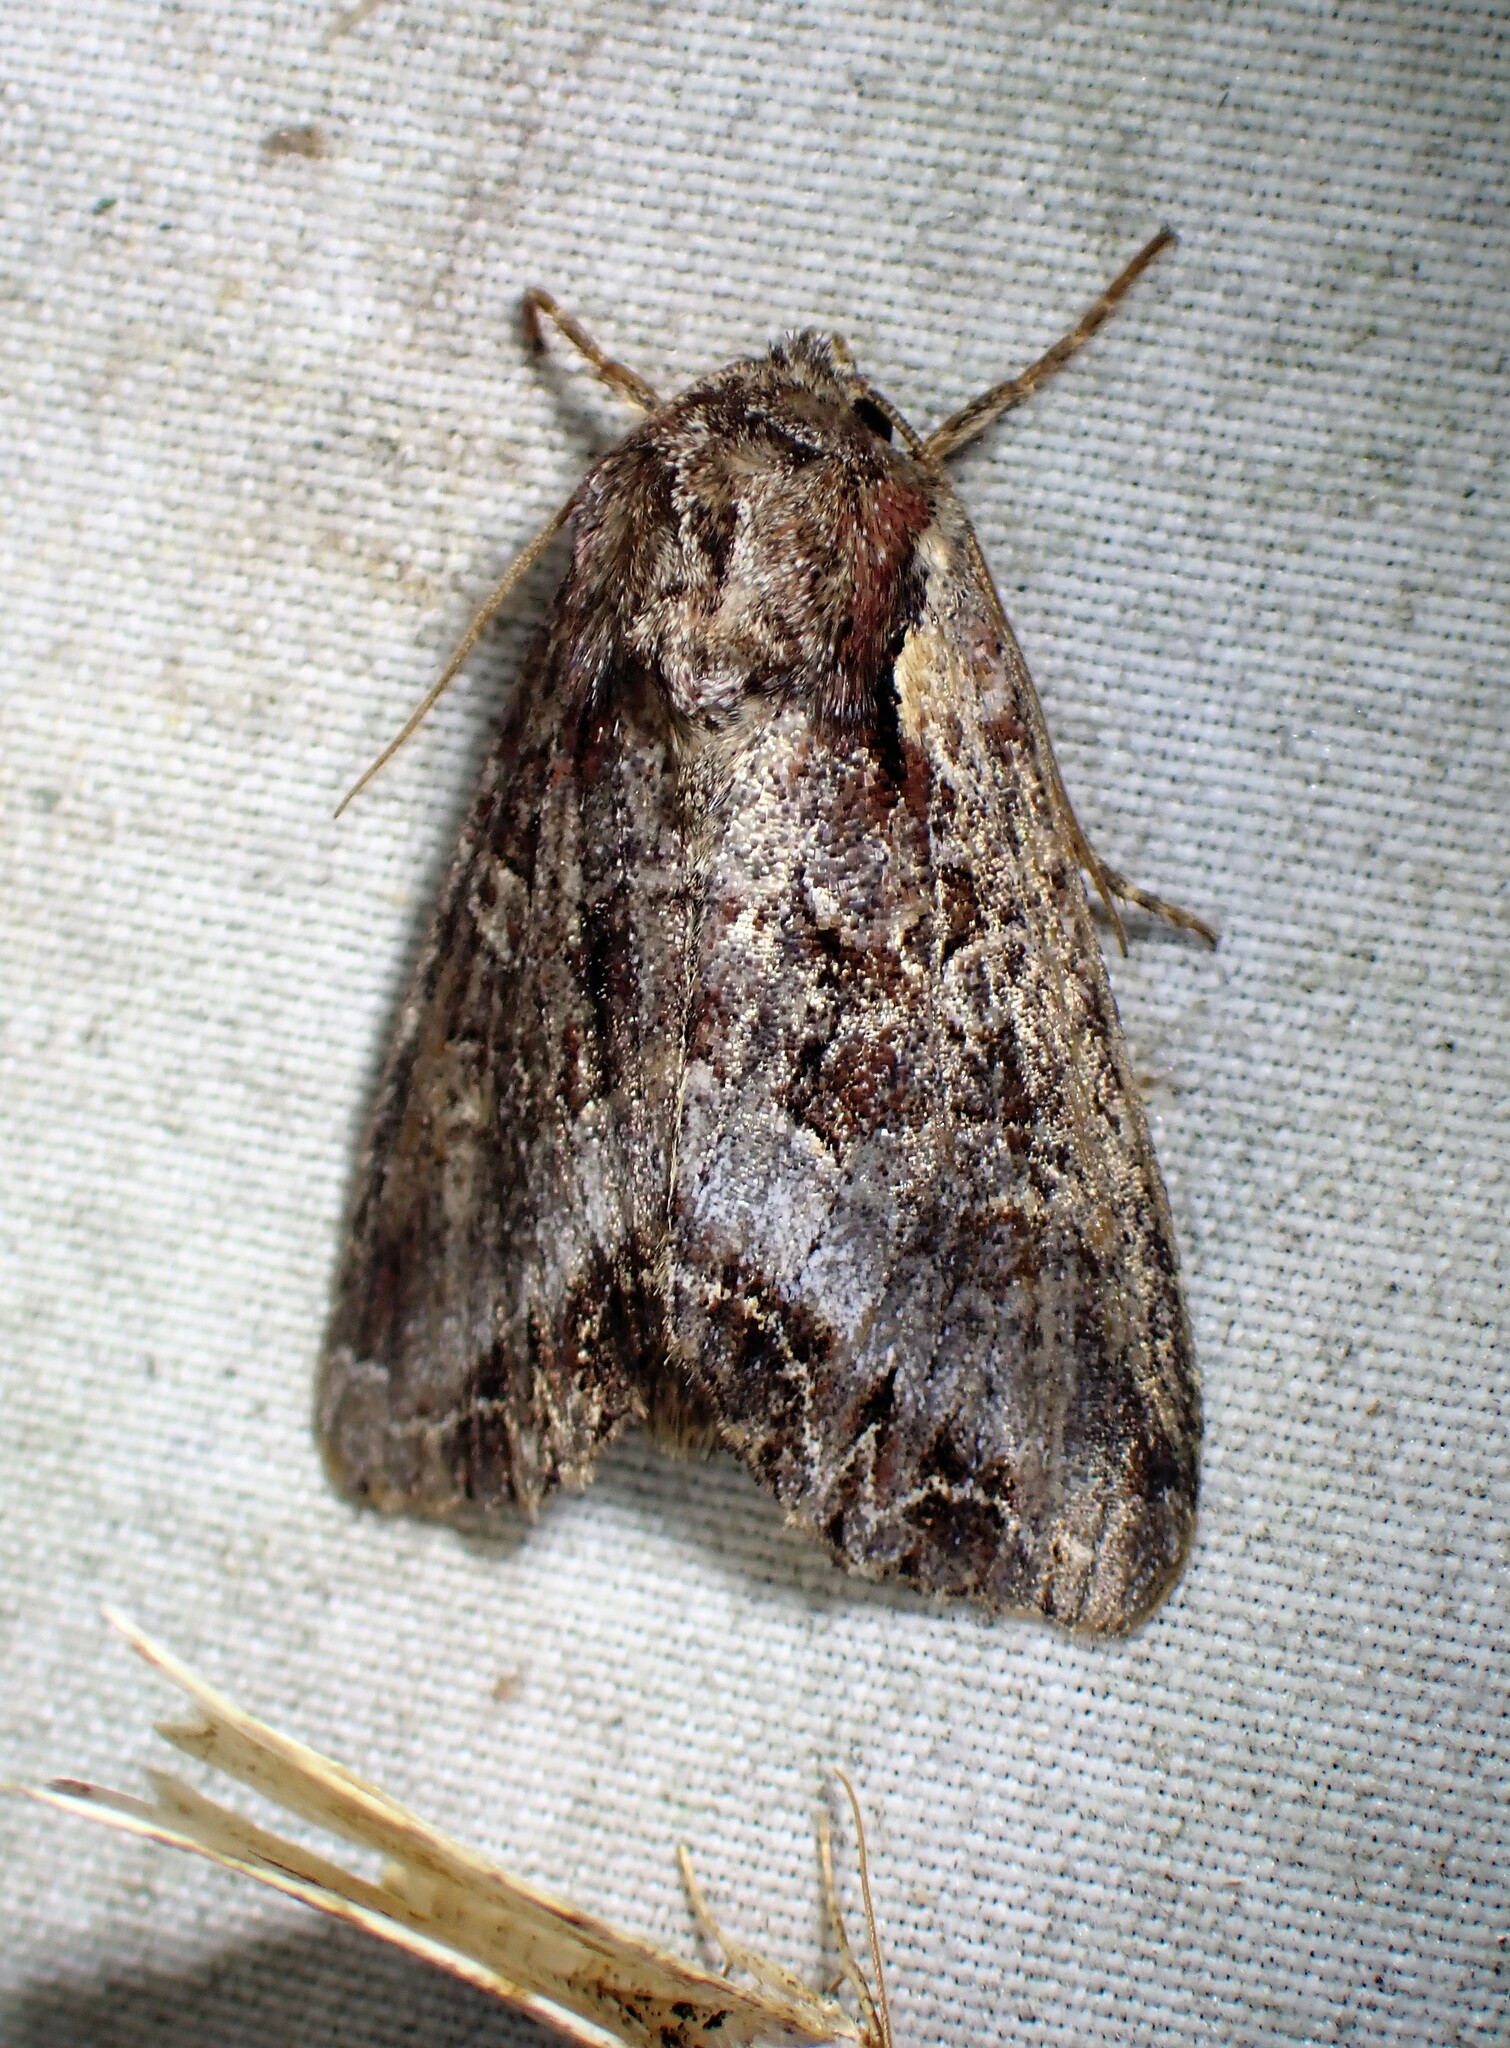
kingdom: Animalia
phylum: Arthropoda
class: Insecta
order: Lepidoptera
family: Noctuidae
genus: Lacanobia
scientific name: Lacanobia grandis
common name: Grand arches moth
